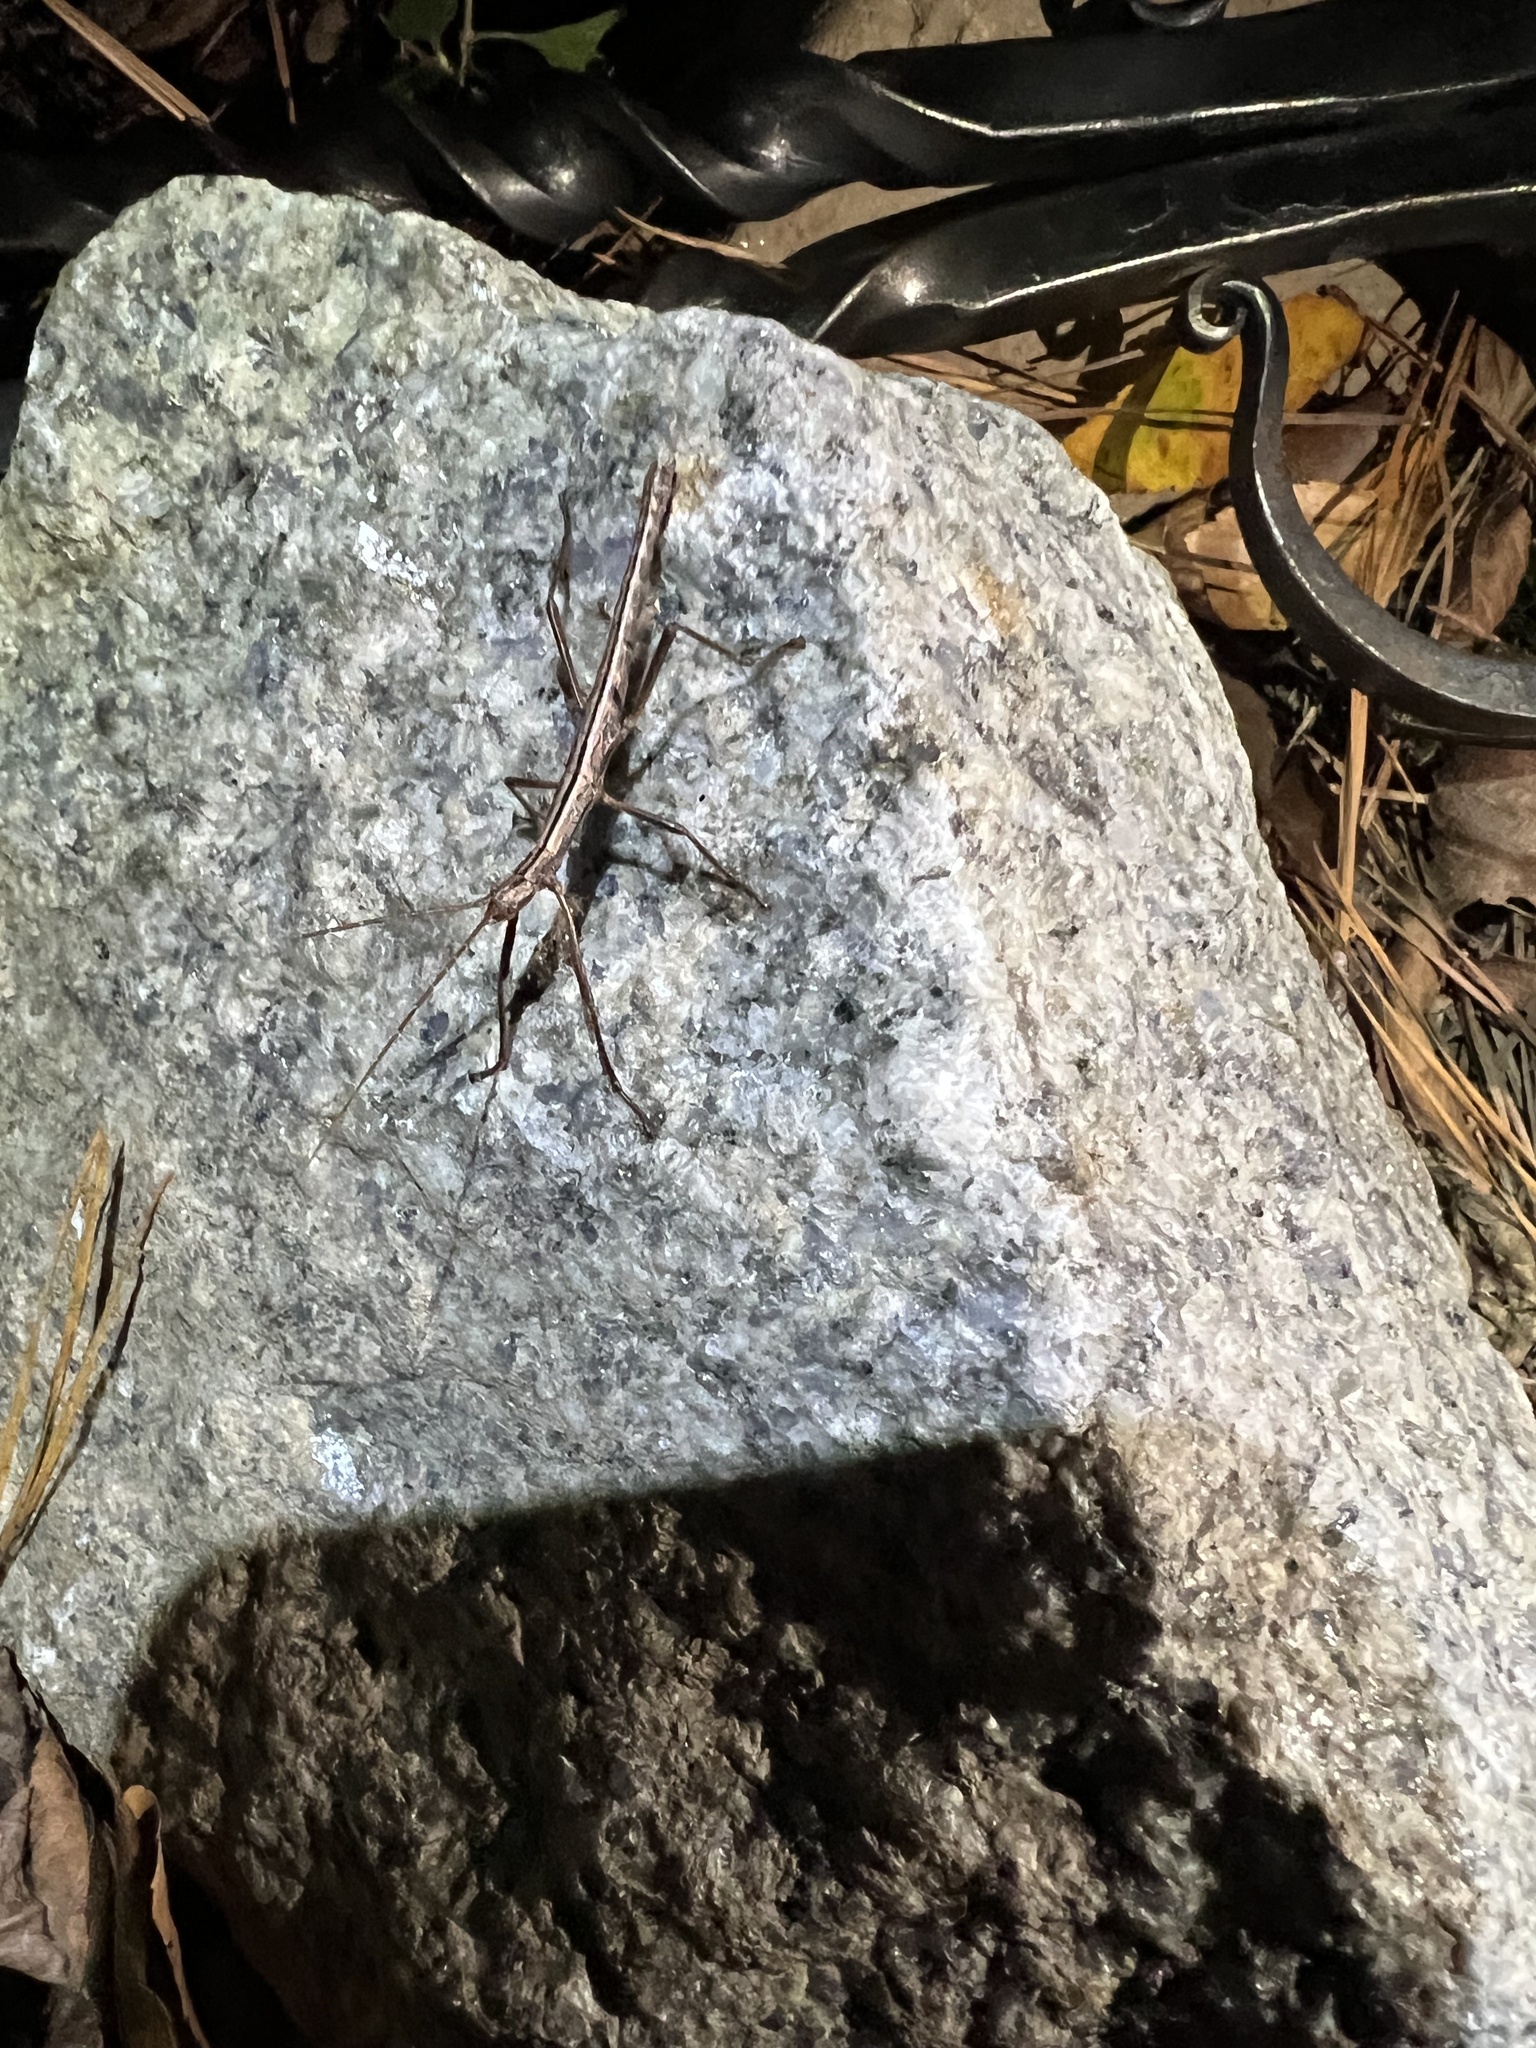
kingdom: Animalia
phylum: Arthropoda
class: Insecta
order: Phasmida
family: Pseudophasmatidae
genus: Anisomorpha
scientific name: Anisomorpha buprestoides
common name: Florida stick insect
